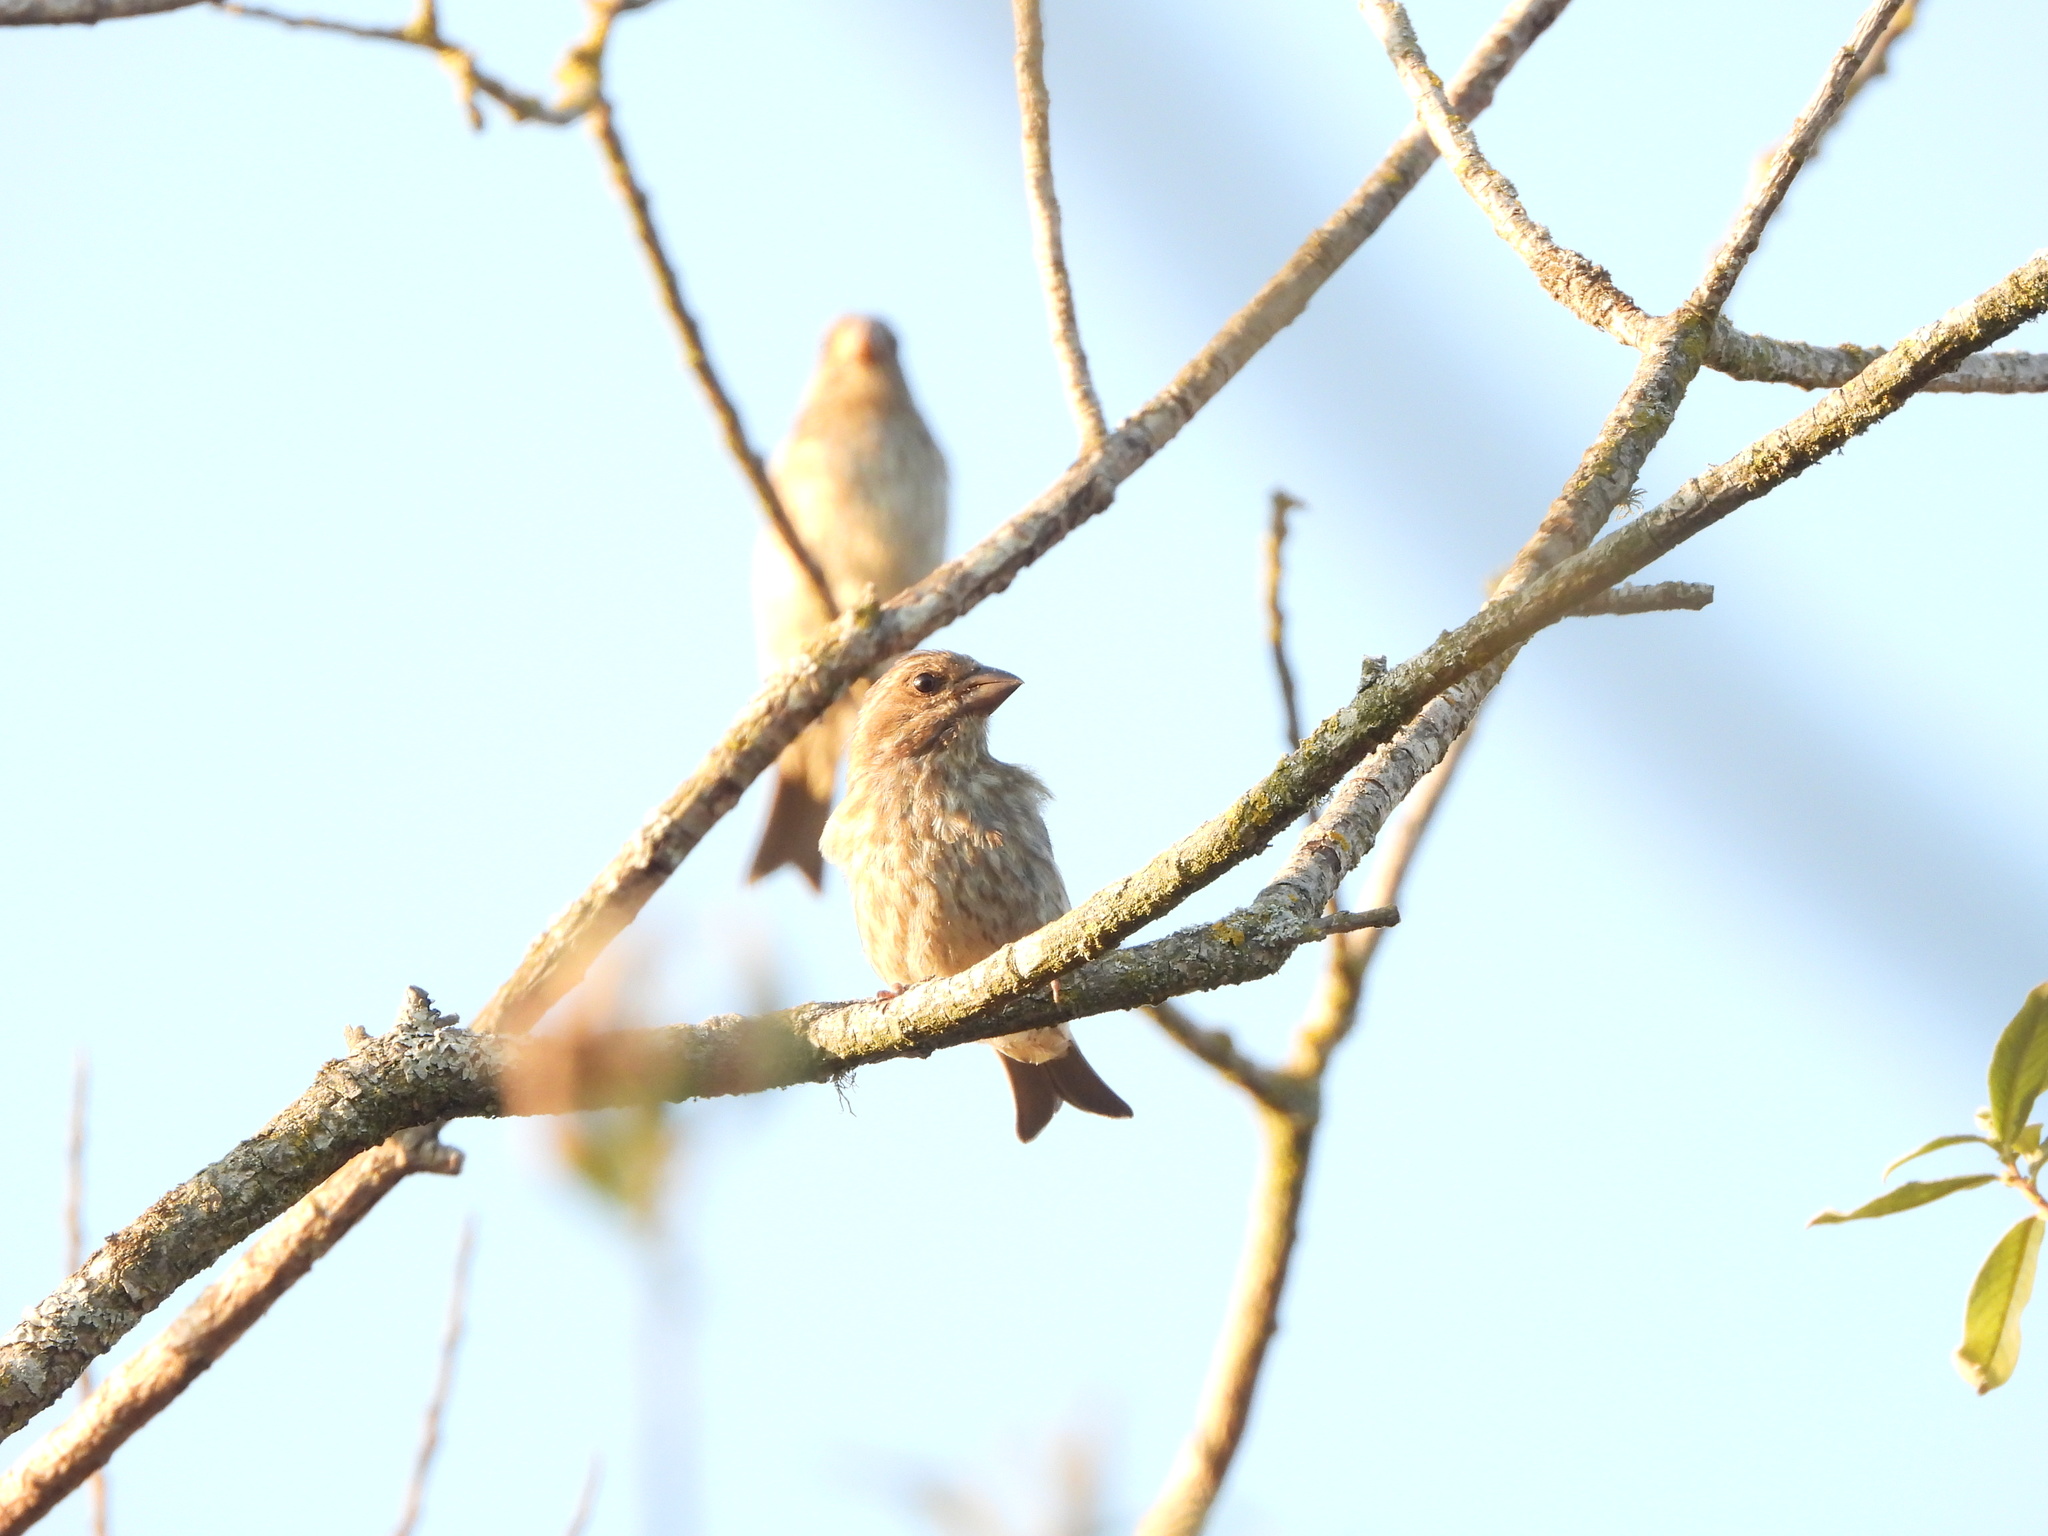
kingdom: Animalia
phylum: Chordata
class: Aves
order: Passeriformes
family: Fringillidae
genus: Haemorhous
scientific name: Haemorhous purpureus
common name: Purple finch
